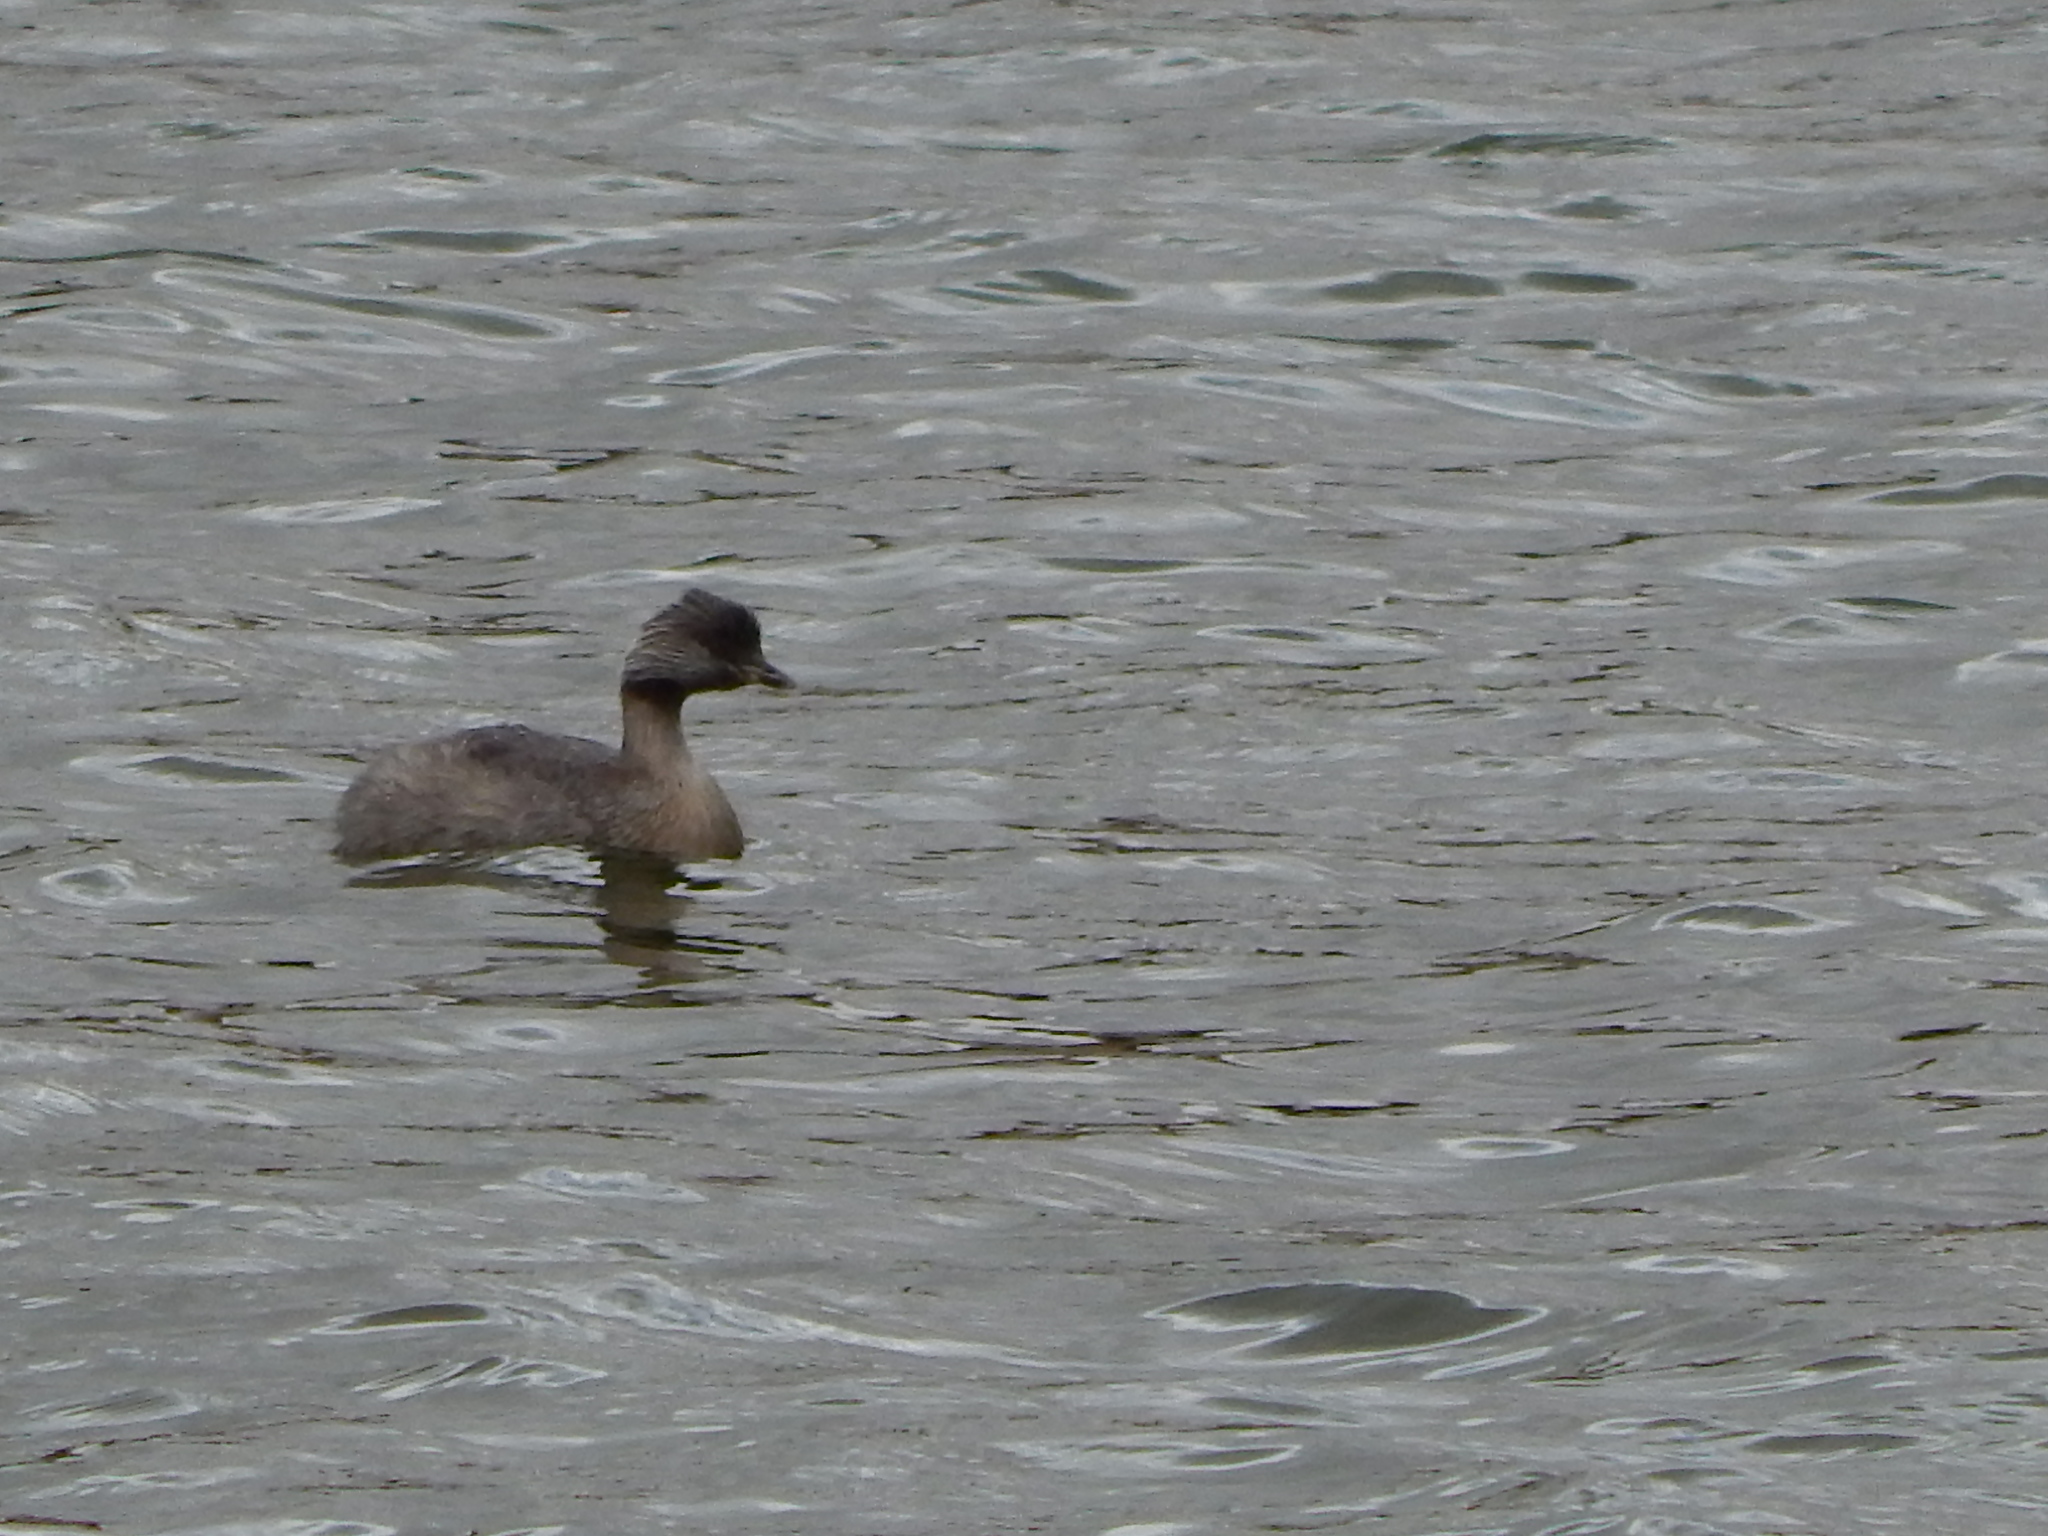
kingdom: Animalia
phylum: Chordata
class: Aves
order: Podicipediformes
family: Podicipedidae
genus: Poliocephalus
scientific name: Poliocephalus poliocephalus
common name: Hoary-headed grebe
